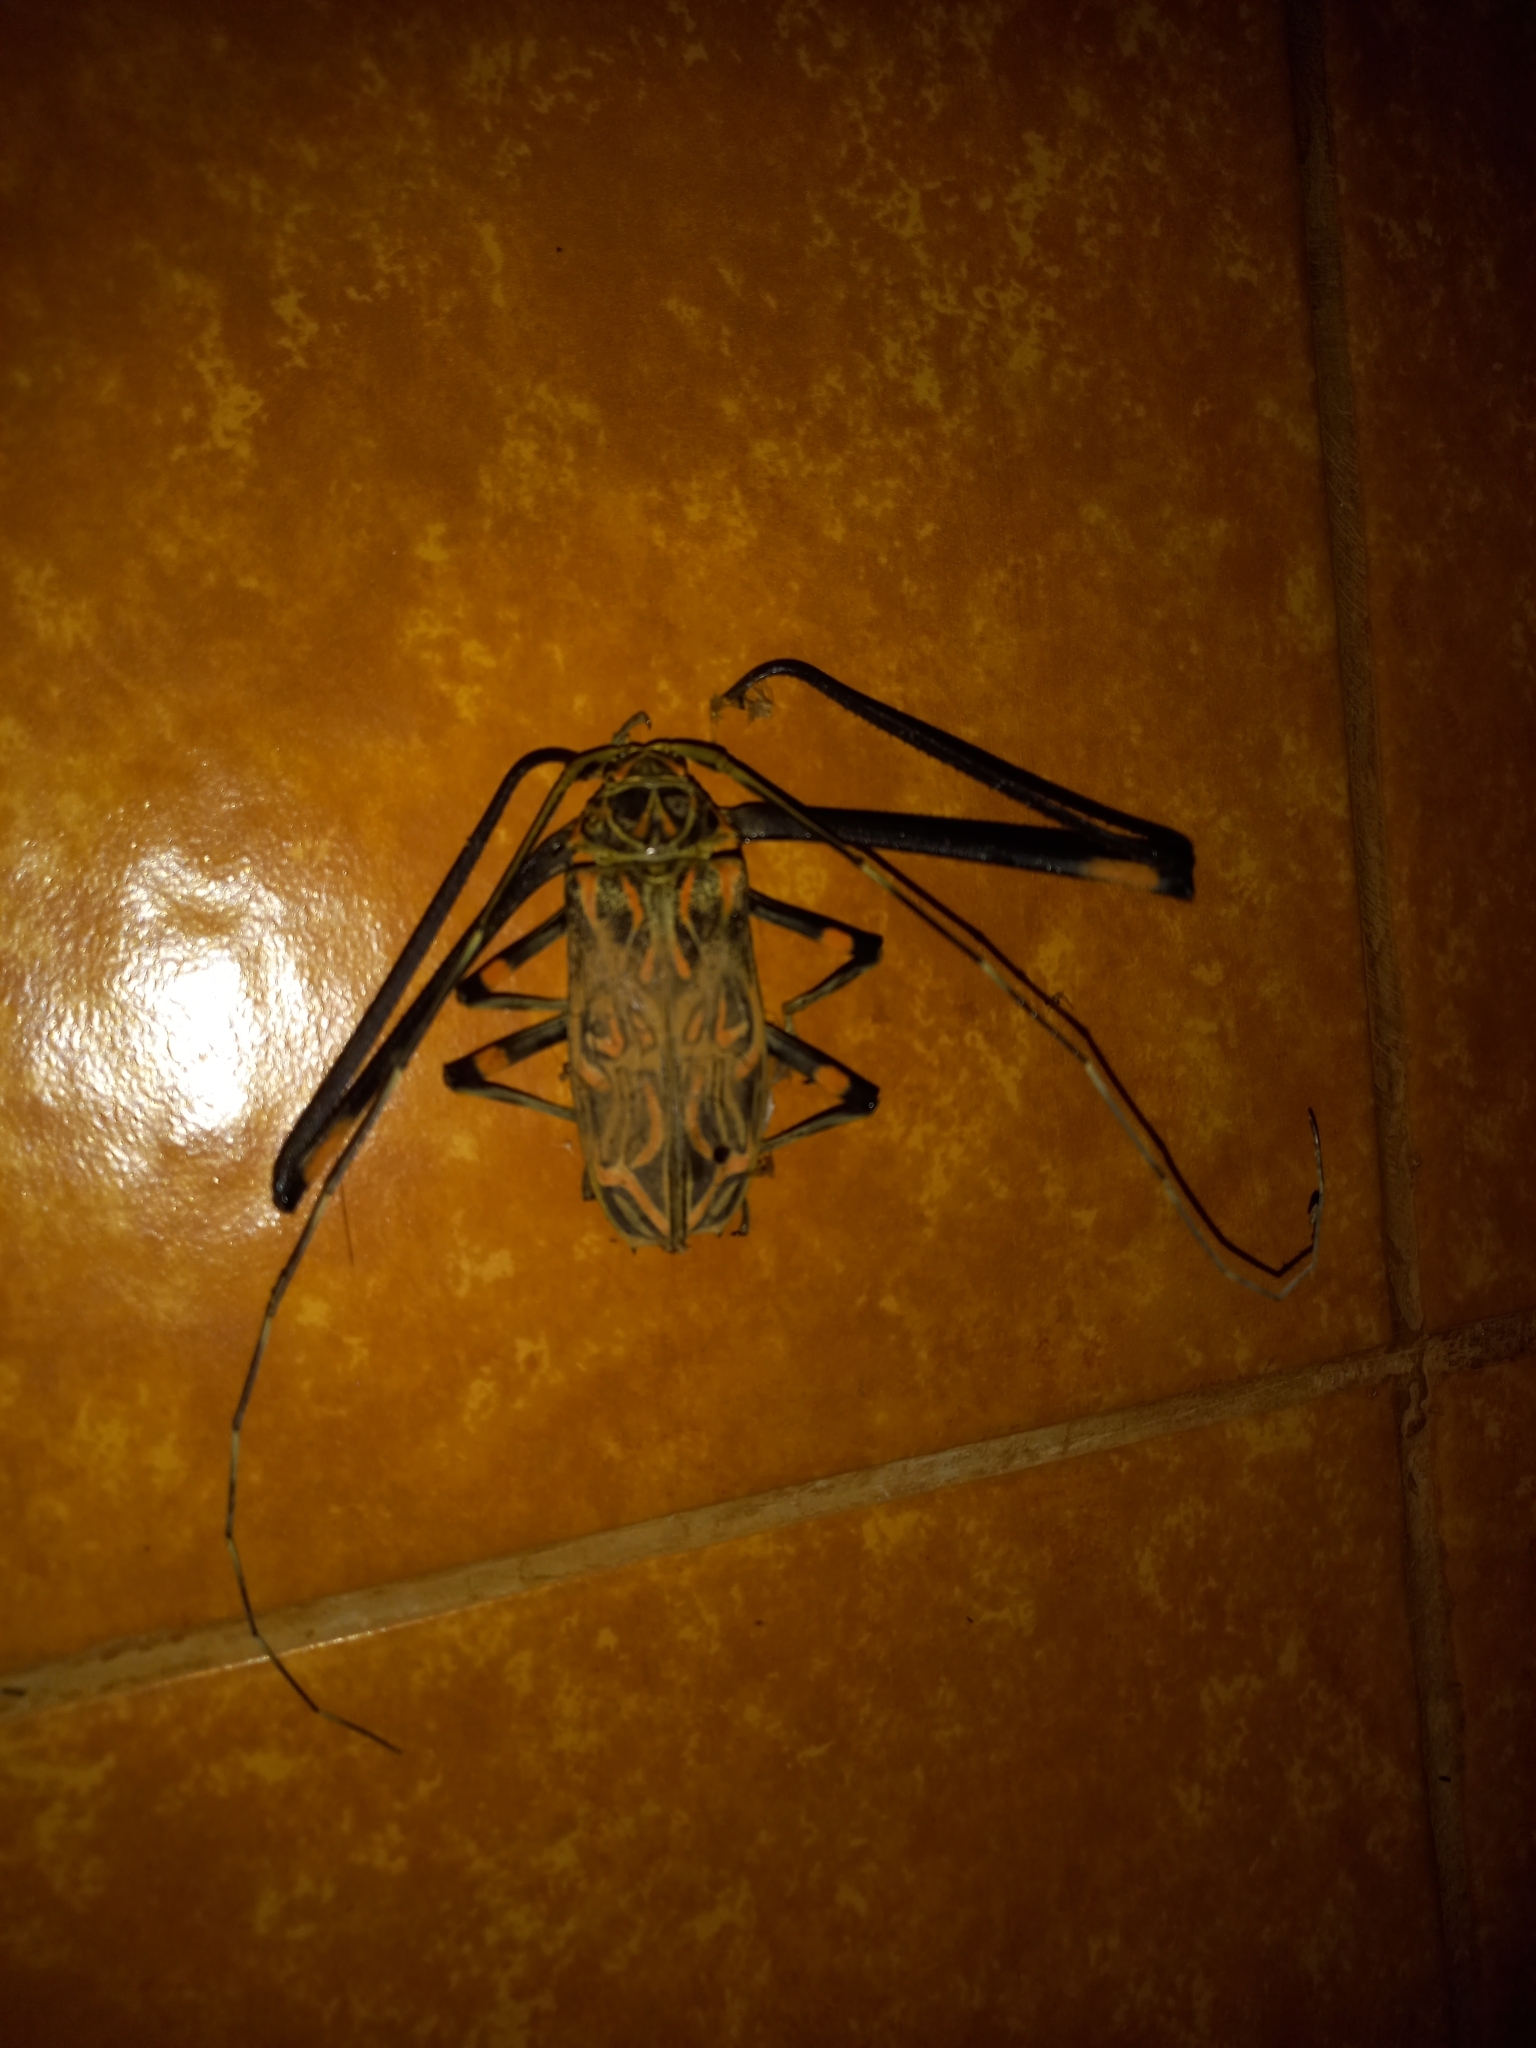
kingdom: Animalia
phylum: Arthropoda
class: Insecta
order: Coleoptera
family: Cerambycidae
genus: Acrocinus
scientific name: Acrocinus longimanus
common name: Arlequin
